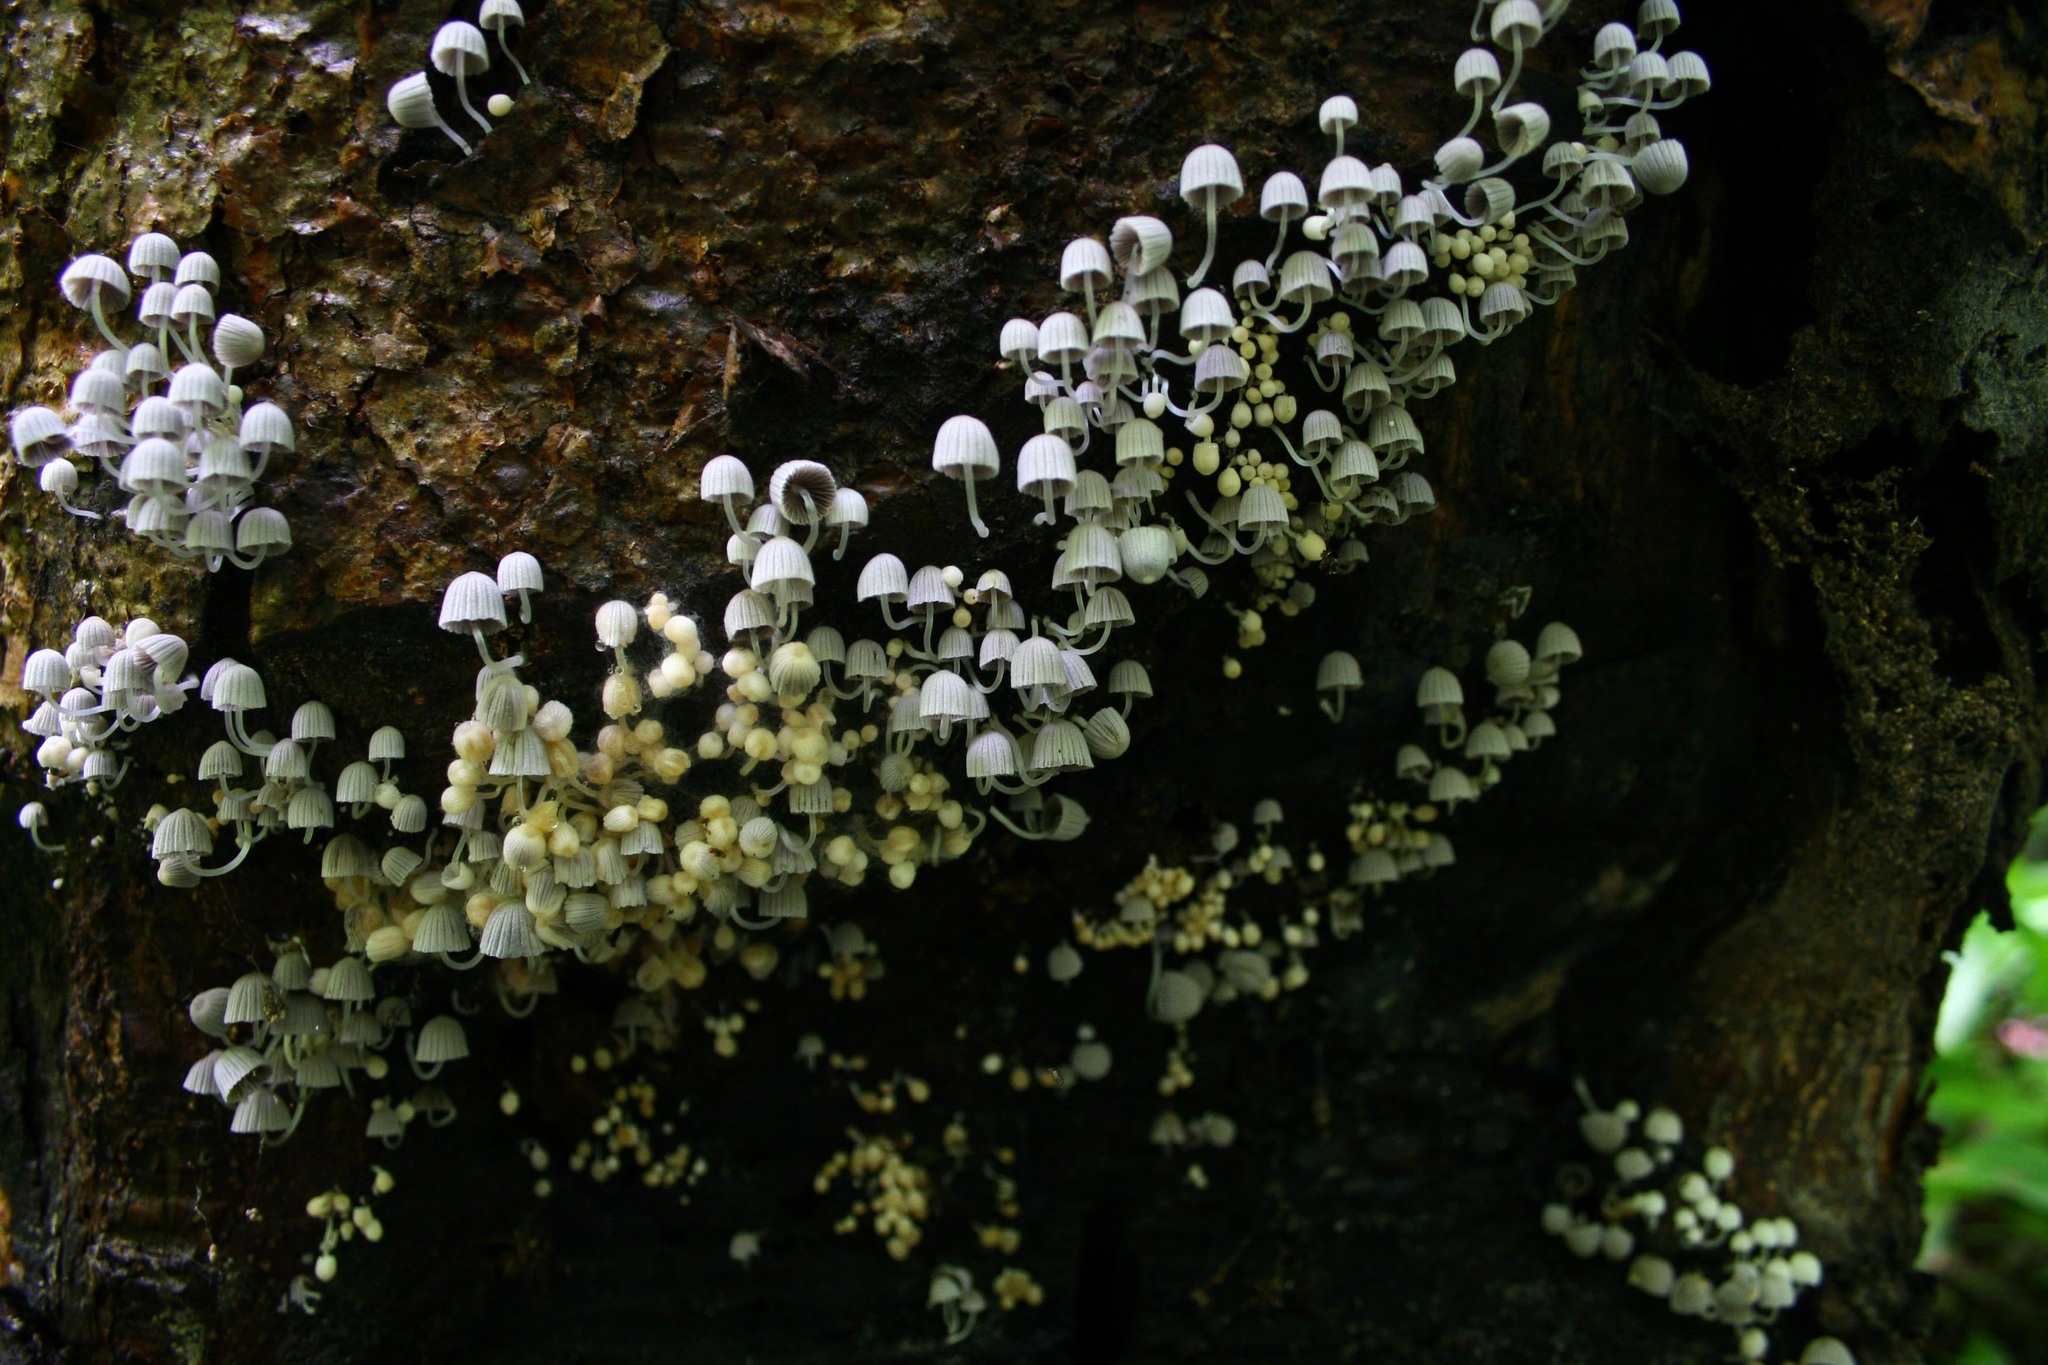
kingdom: Fungi
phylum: Basidiomycota
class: Agaricomycetes
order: Agaricales
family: Psathyrellaceae
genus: Coprinellus
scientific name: Coprinellus disseminatus
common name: Fairies' bonnets
